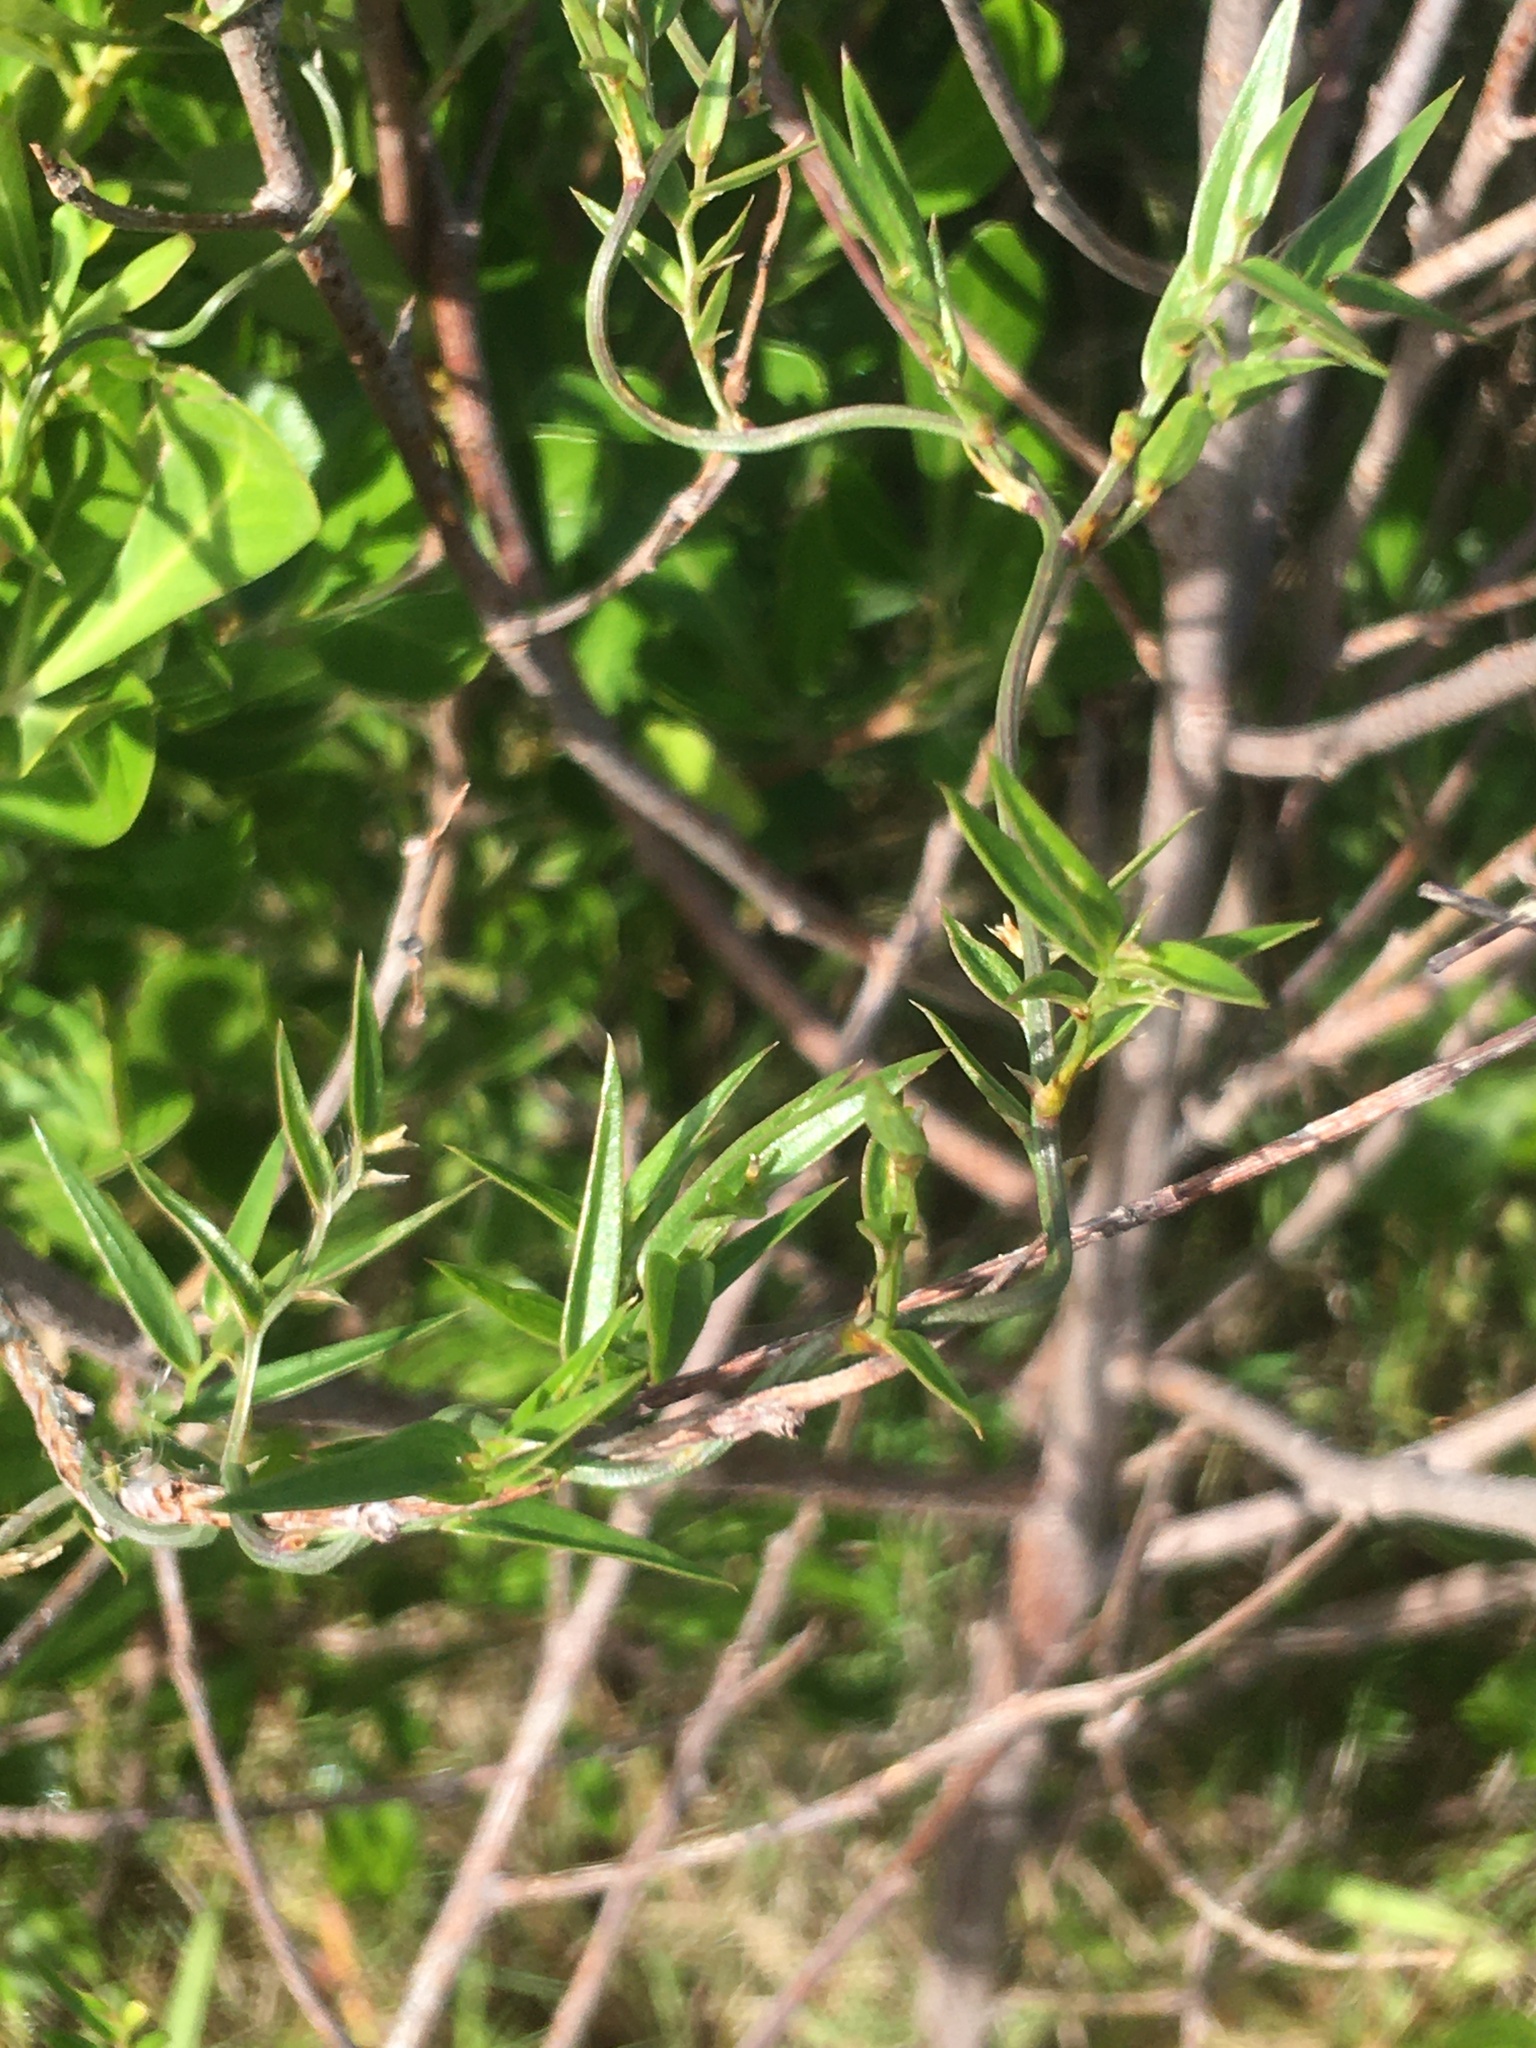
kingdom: Plantae
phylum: Tracheophyta
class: Liliopsida
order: Asparagales
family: Asparagaceae
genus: Asparagus
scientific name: Asparagus kraussianus
